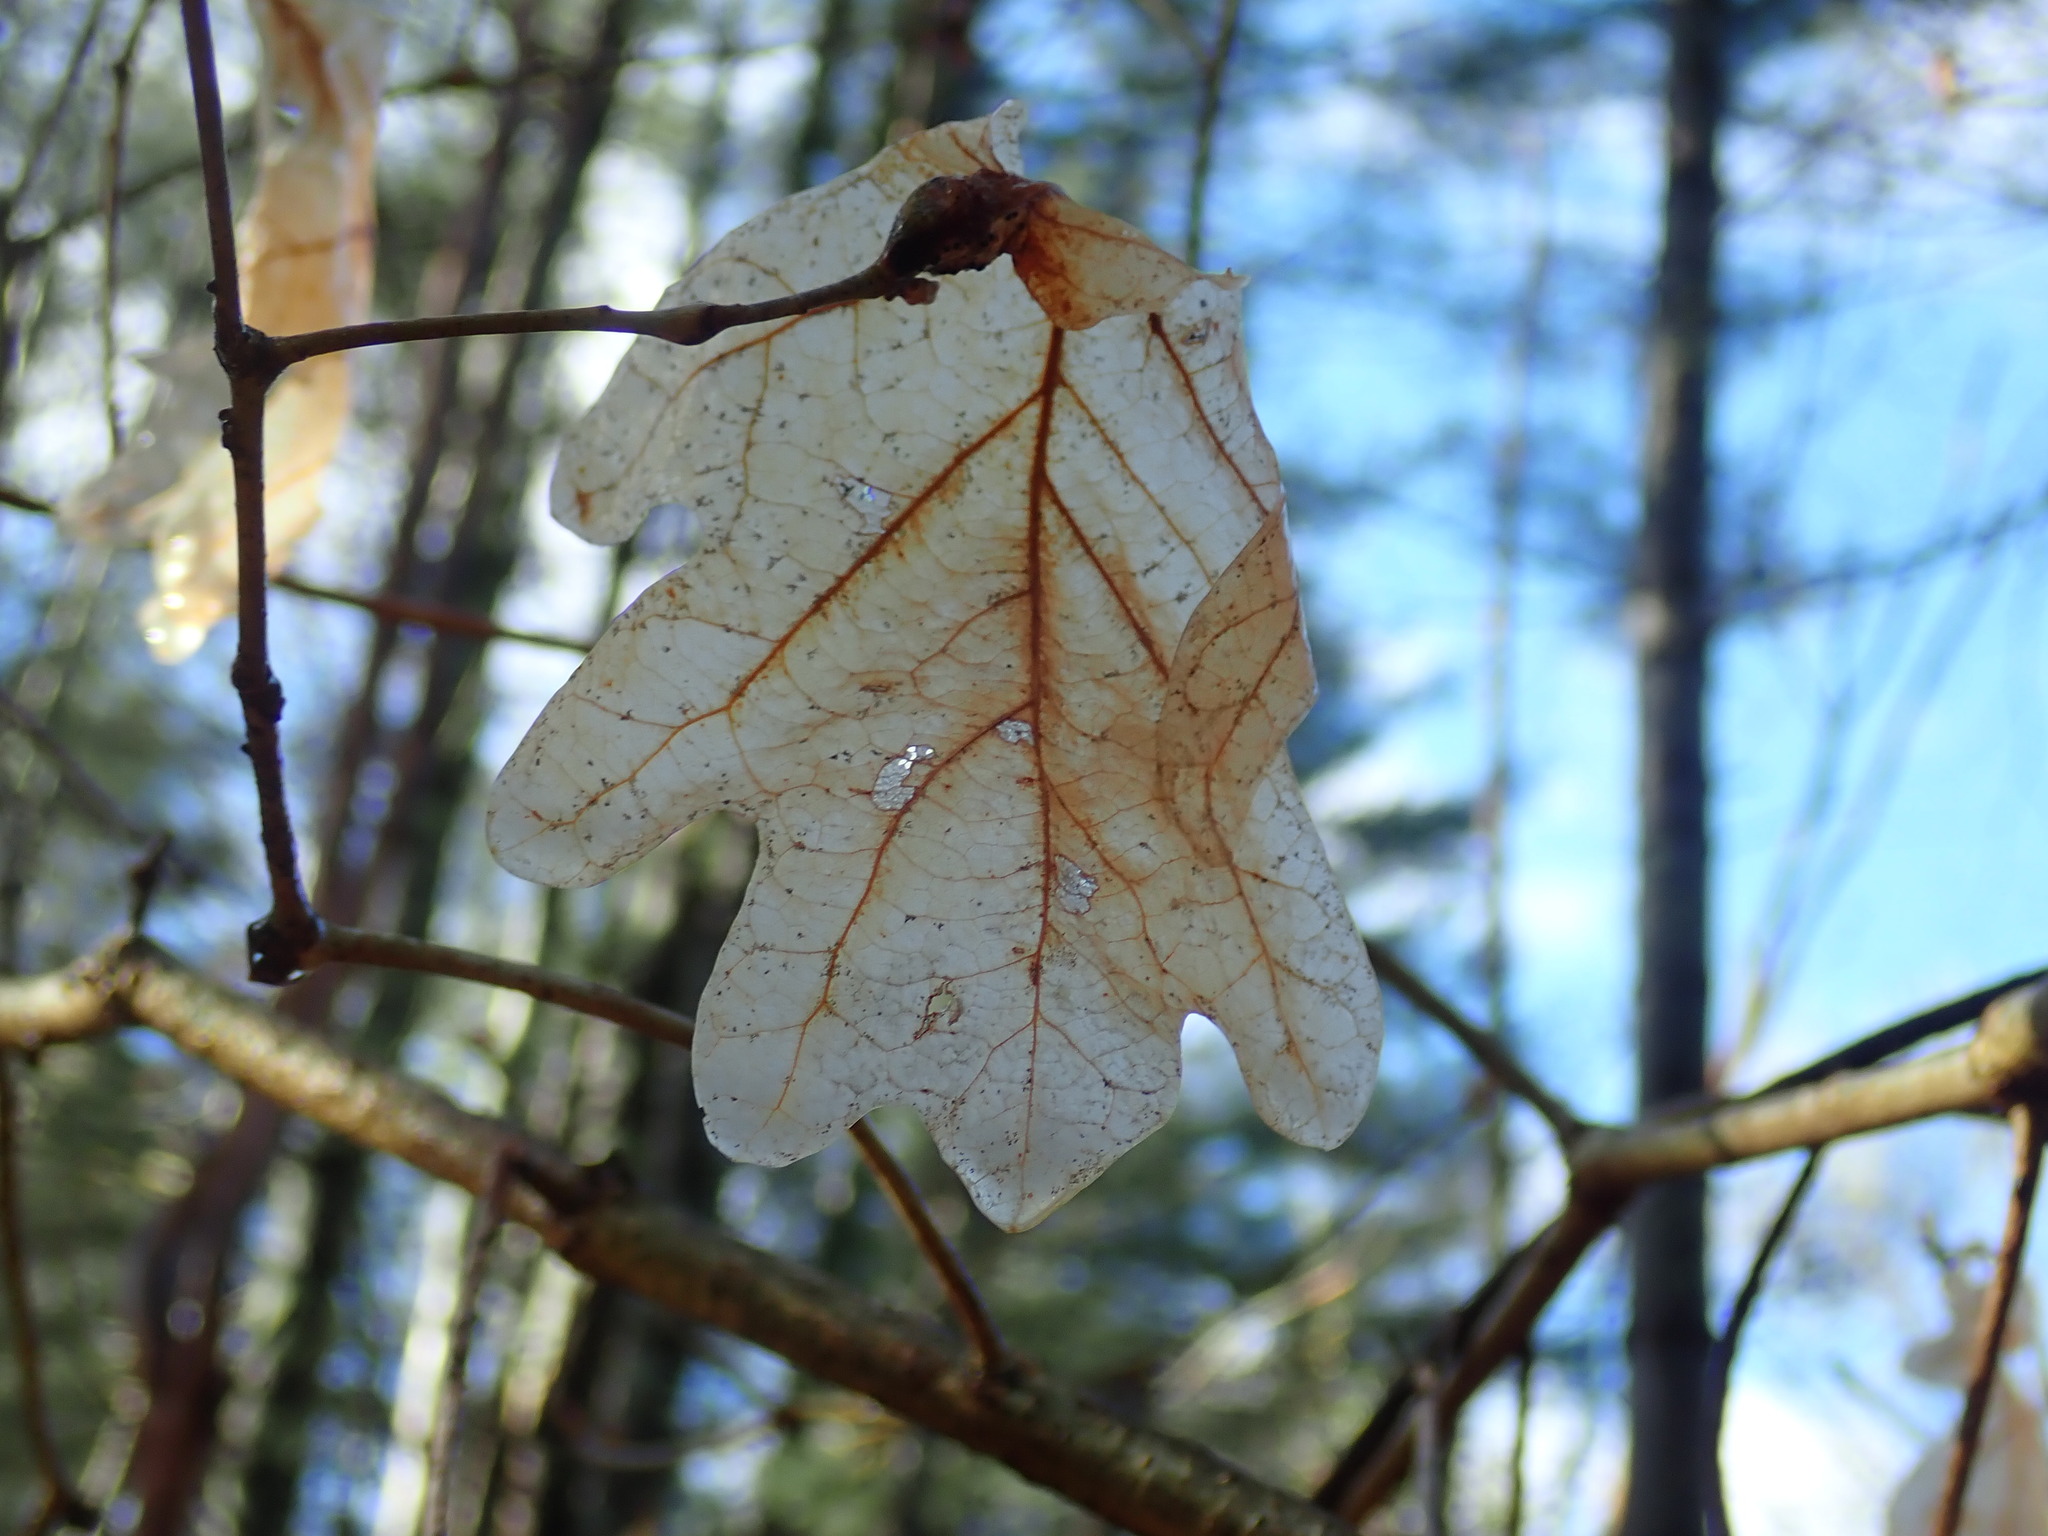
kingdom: Plantae
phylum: Tracheophyta
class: Magnoliopsida
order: Fagales
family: Fagaceae
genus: Quercus
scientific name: Quercus alba
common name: White oak
